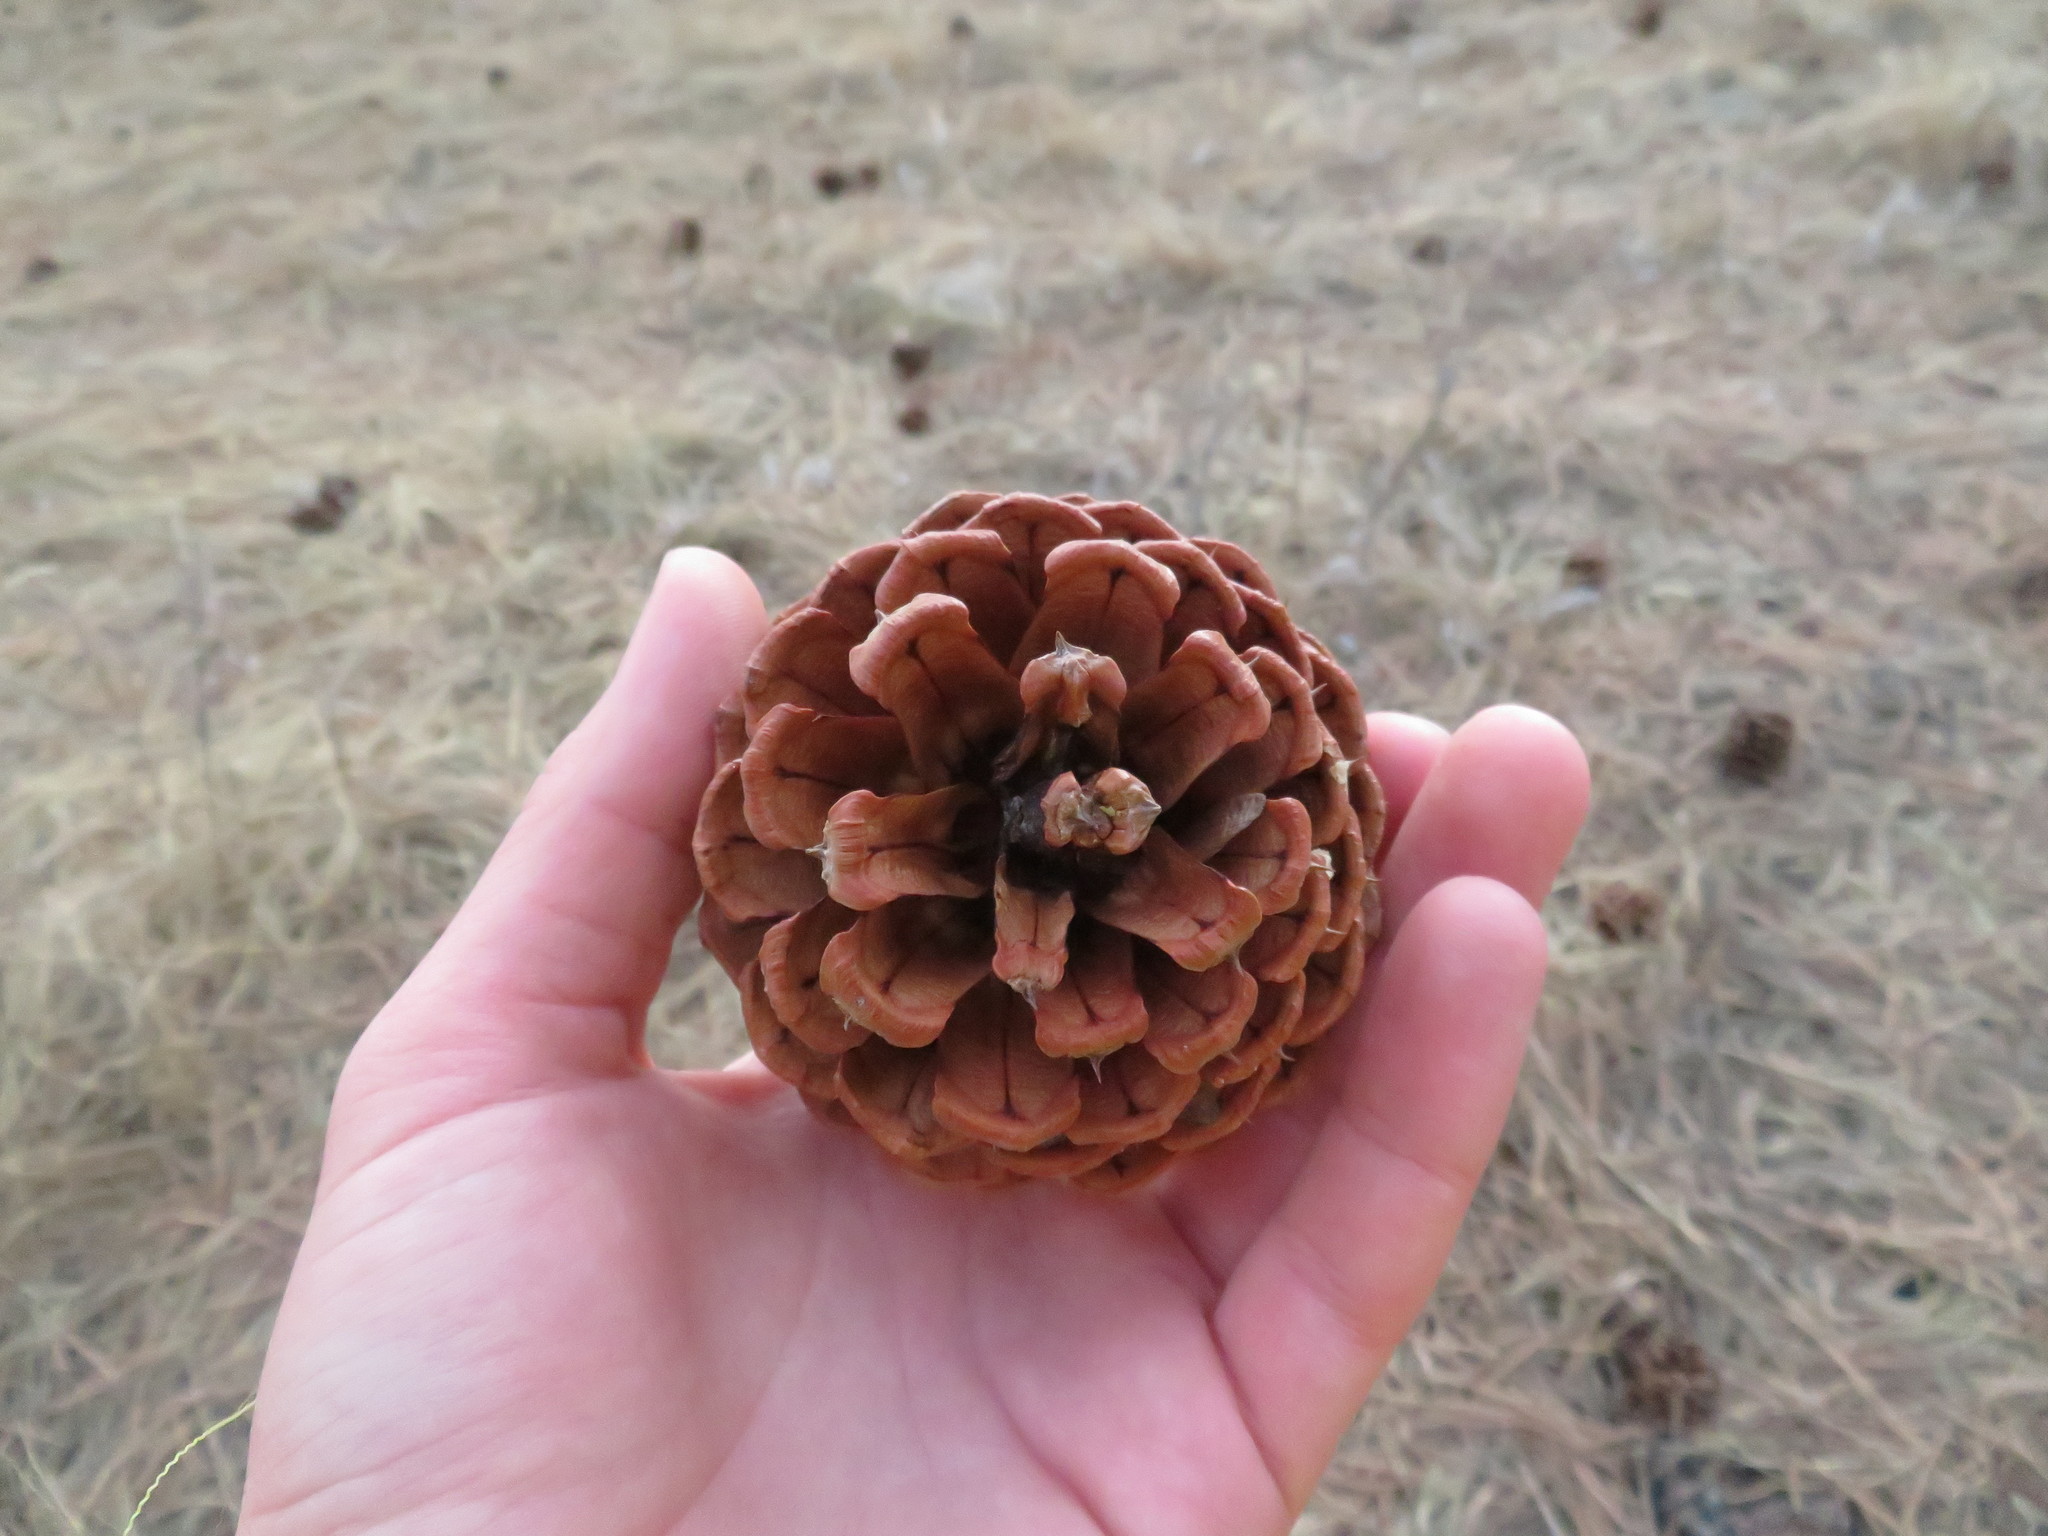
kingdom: Plantae
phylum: Tracheophyta
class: Pinopsida
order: Pinales
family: Pinaceae
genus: Pinus
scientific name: Pinus ponderosa
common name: Western yellow-pine
